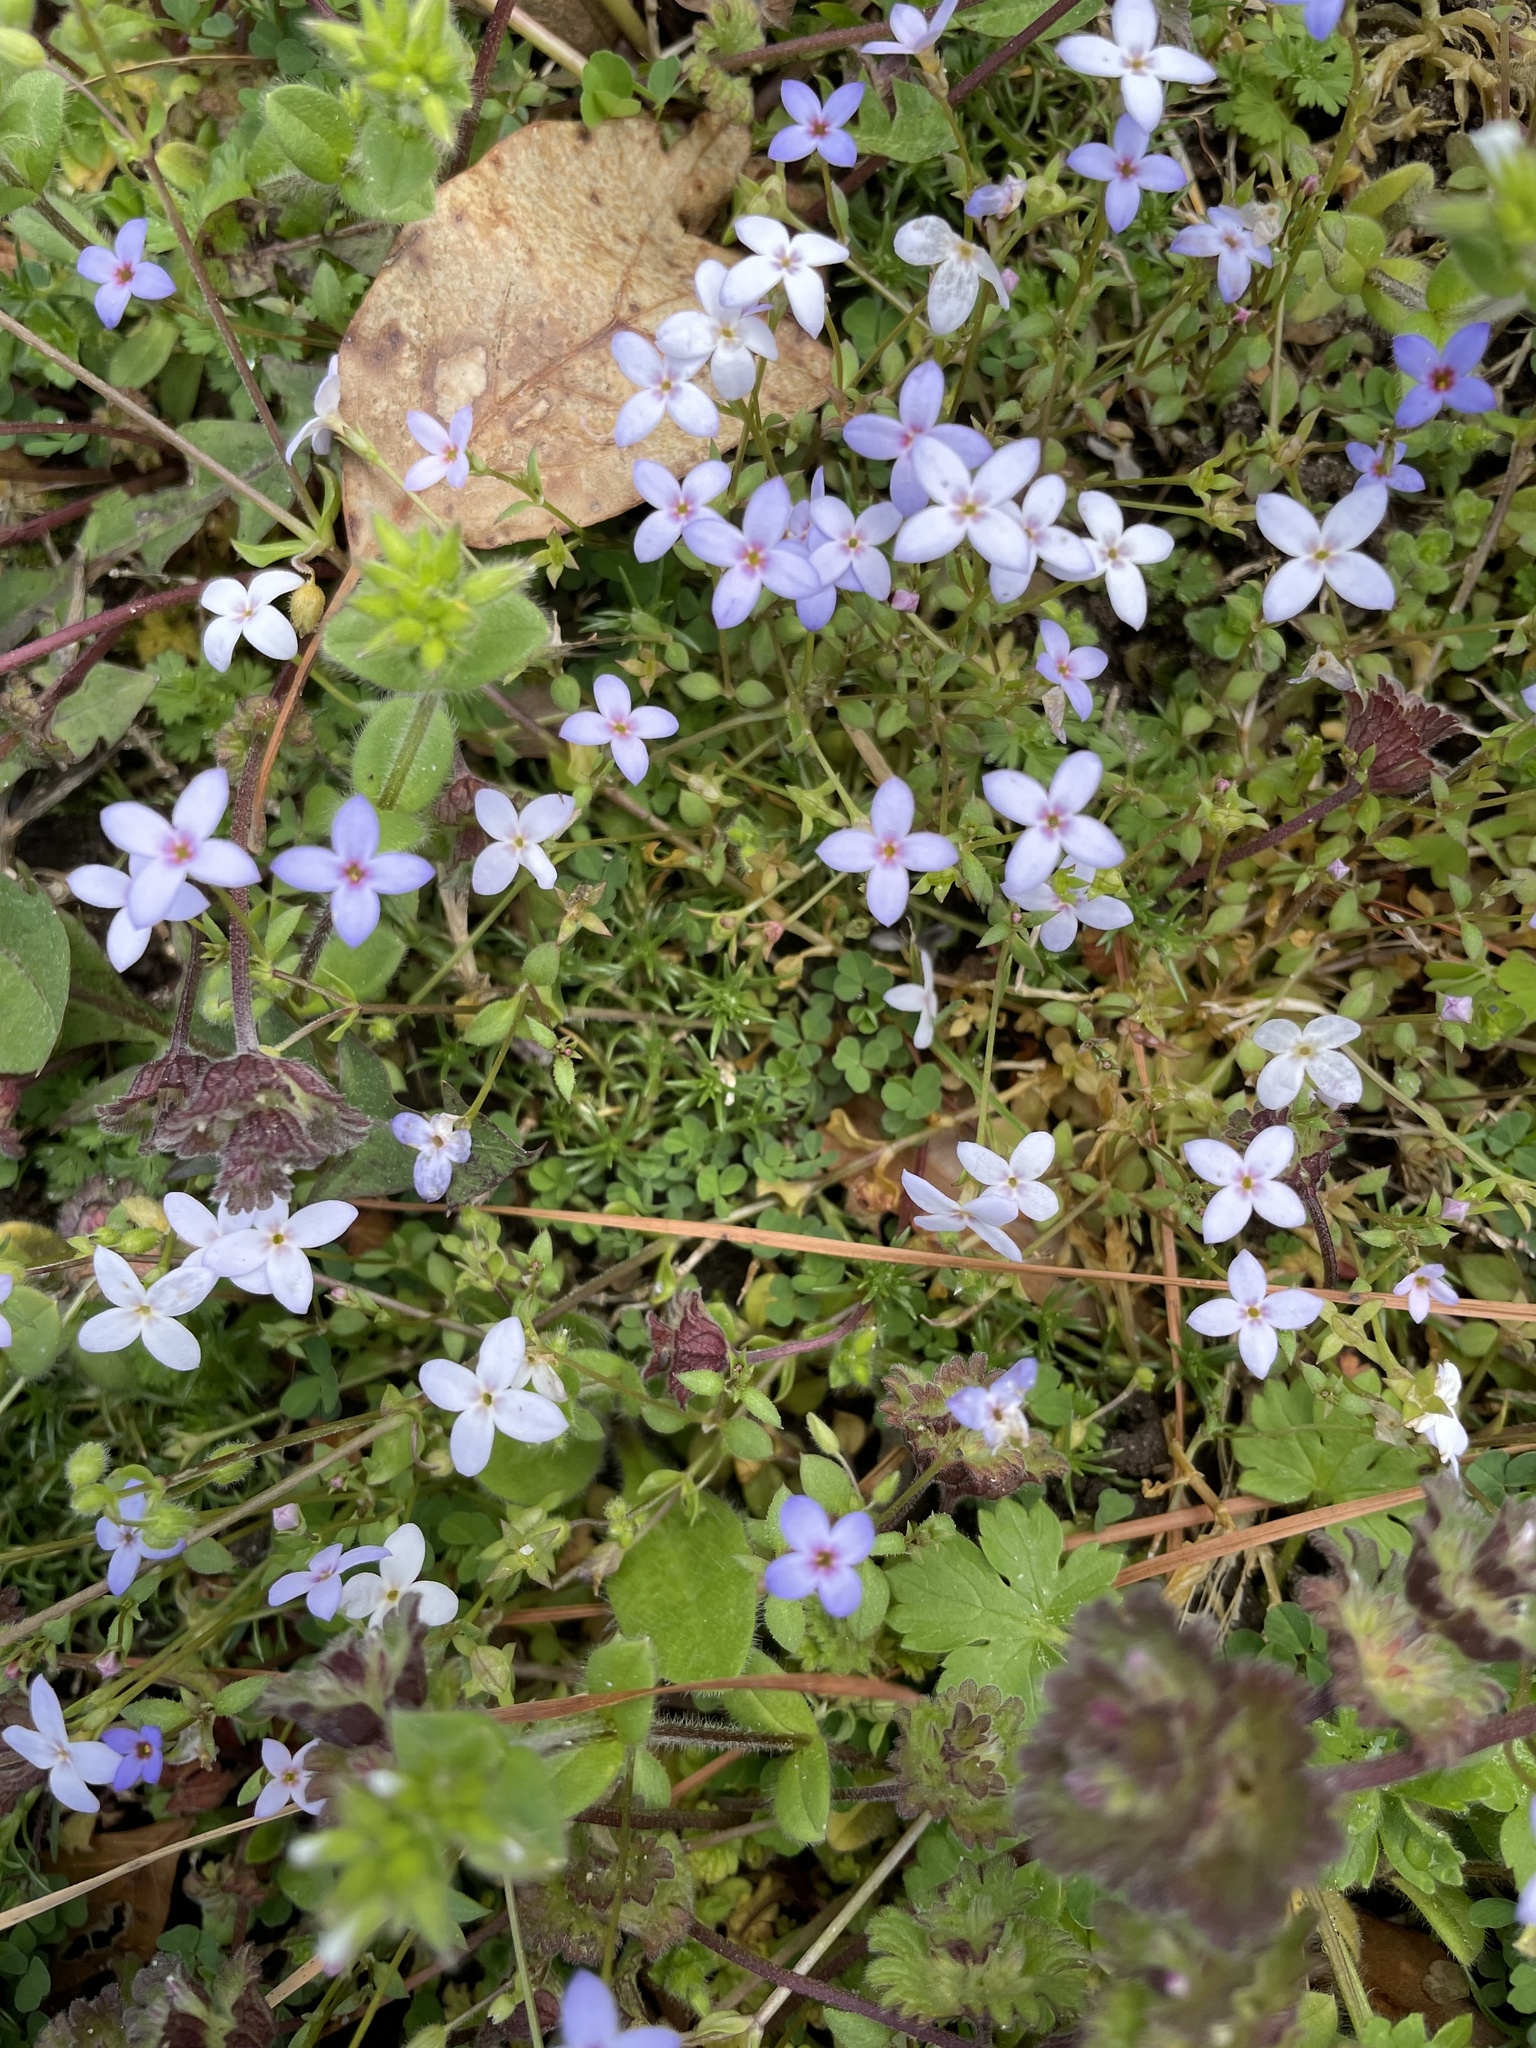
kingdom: Plantae
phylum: Tracheophyta
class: Magnoliopsida
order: Gentianales
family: Rubiaceae
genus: Houstonia
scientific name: Houstonia pusilla
